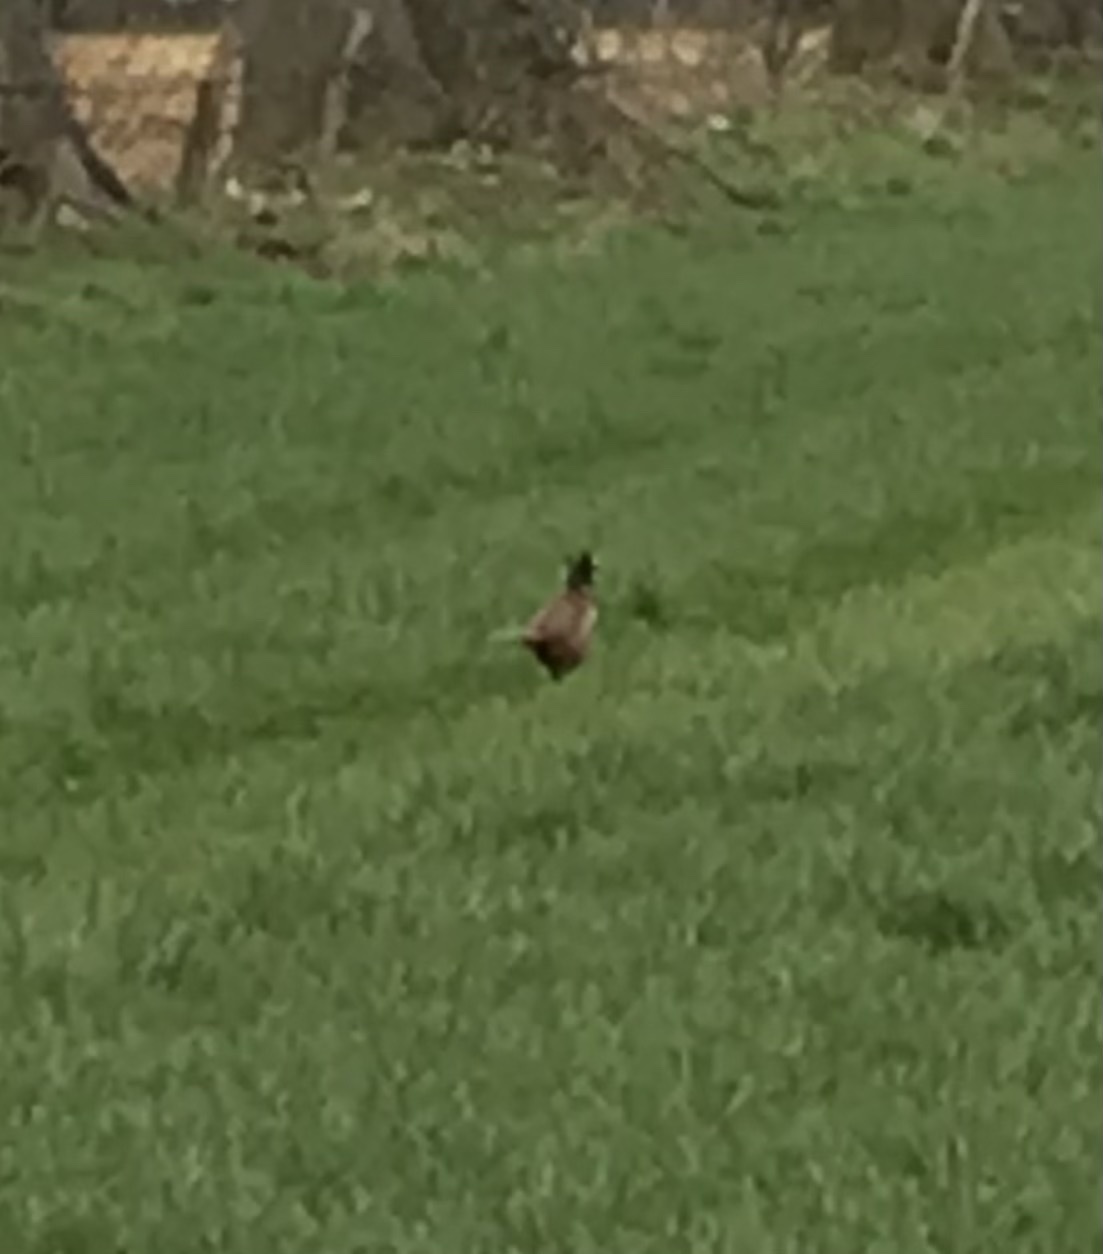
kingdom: Animalia
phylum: Chordata
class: Aves
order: Galliformes
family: Phasianidae
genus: Phasianus
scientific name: Phasianus colchicus
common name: Common pheasant
